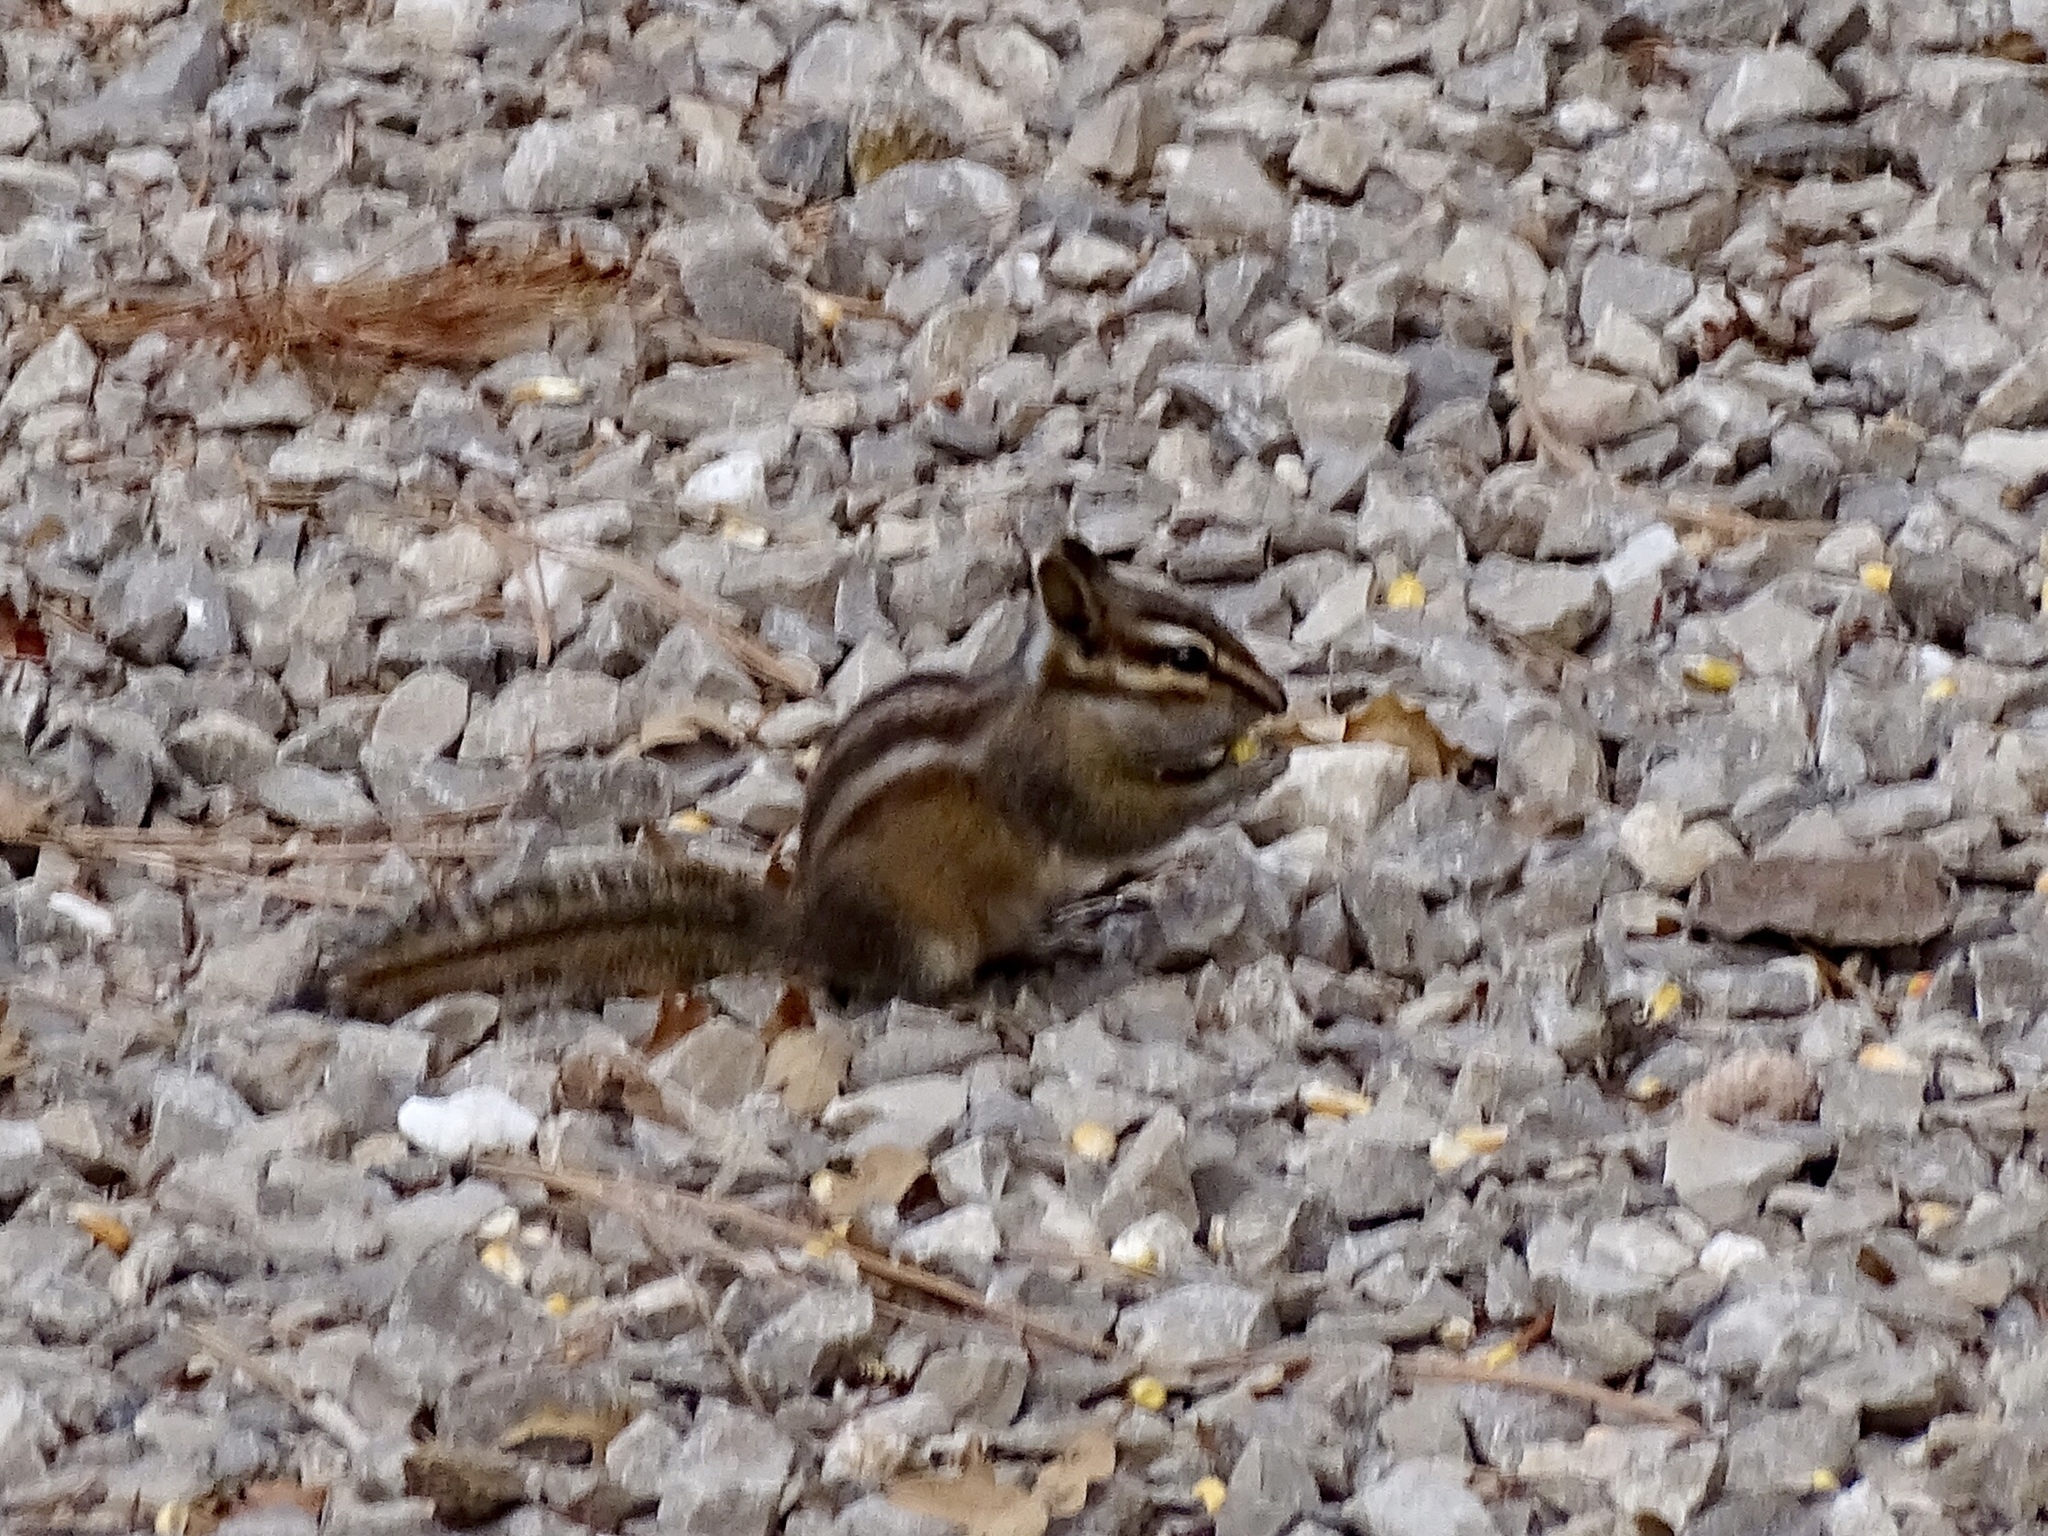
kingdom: Animalia
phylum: Chordata
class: Mammalia
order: Rodentia
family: Sciuridae
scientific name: Sciuridae
